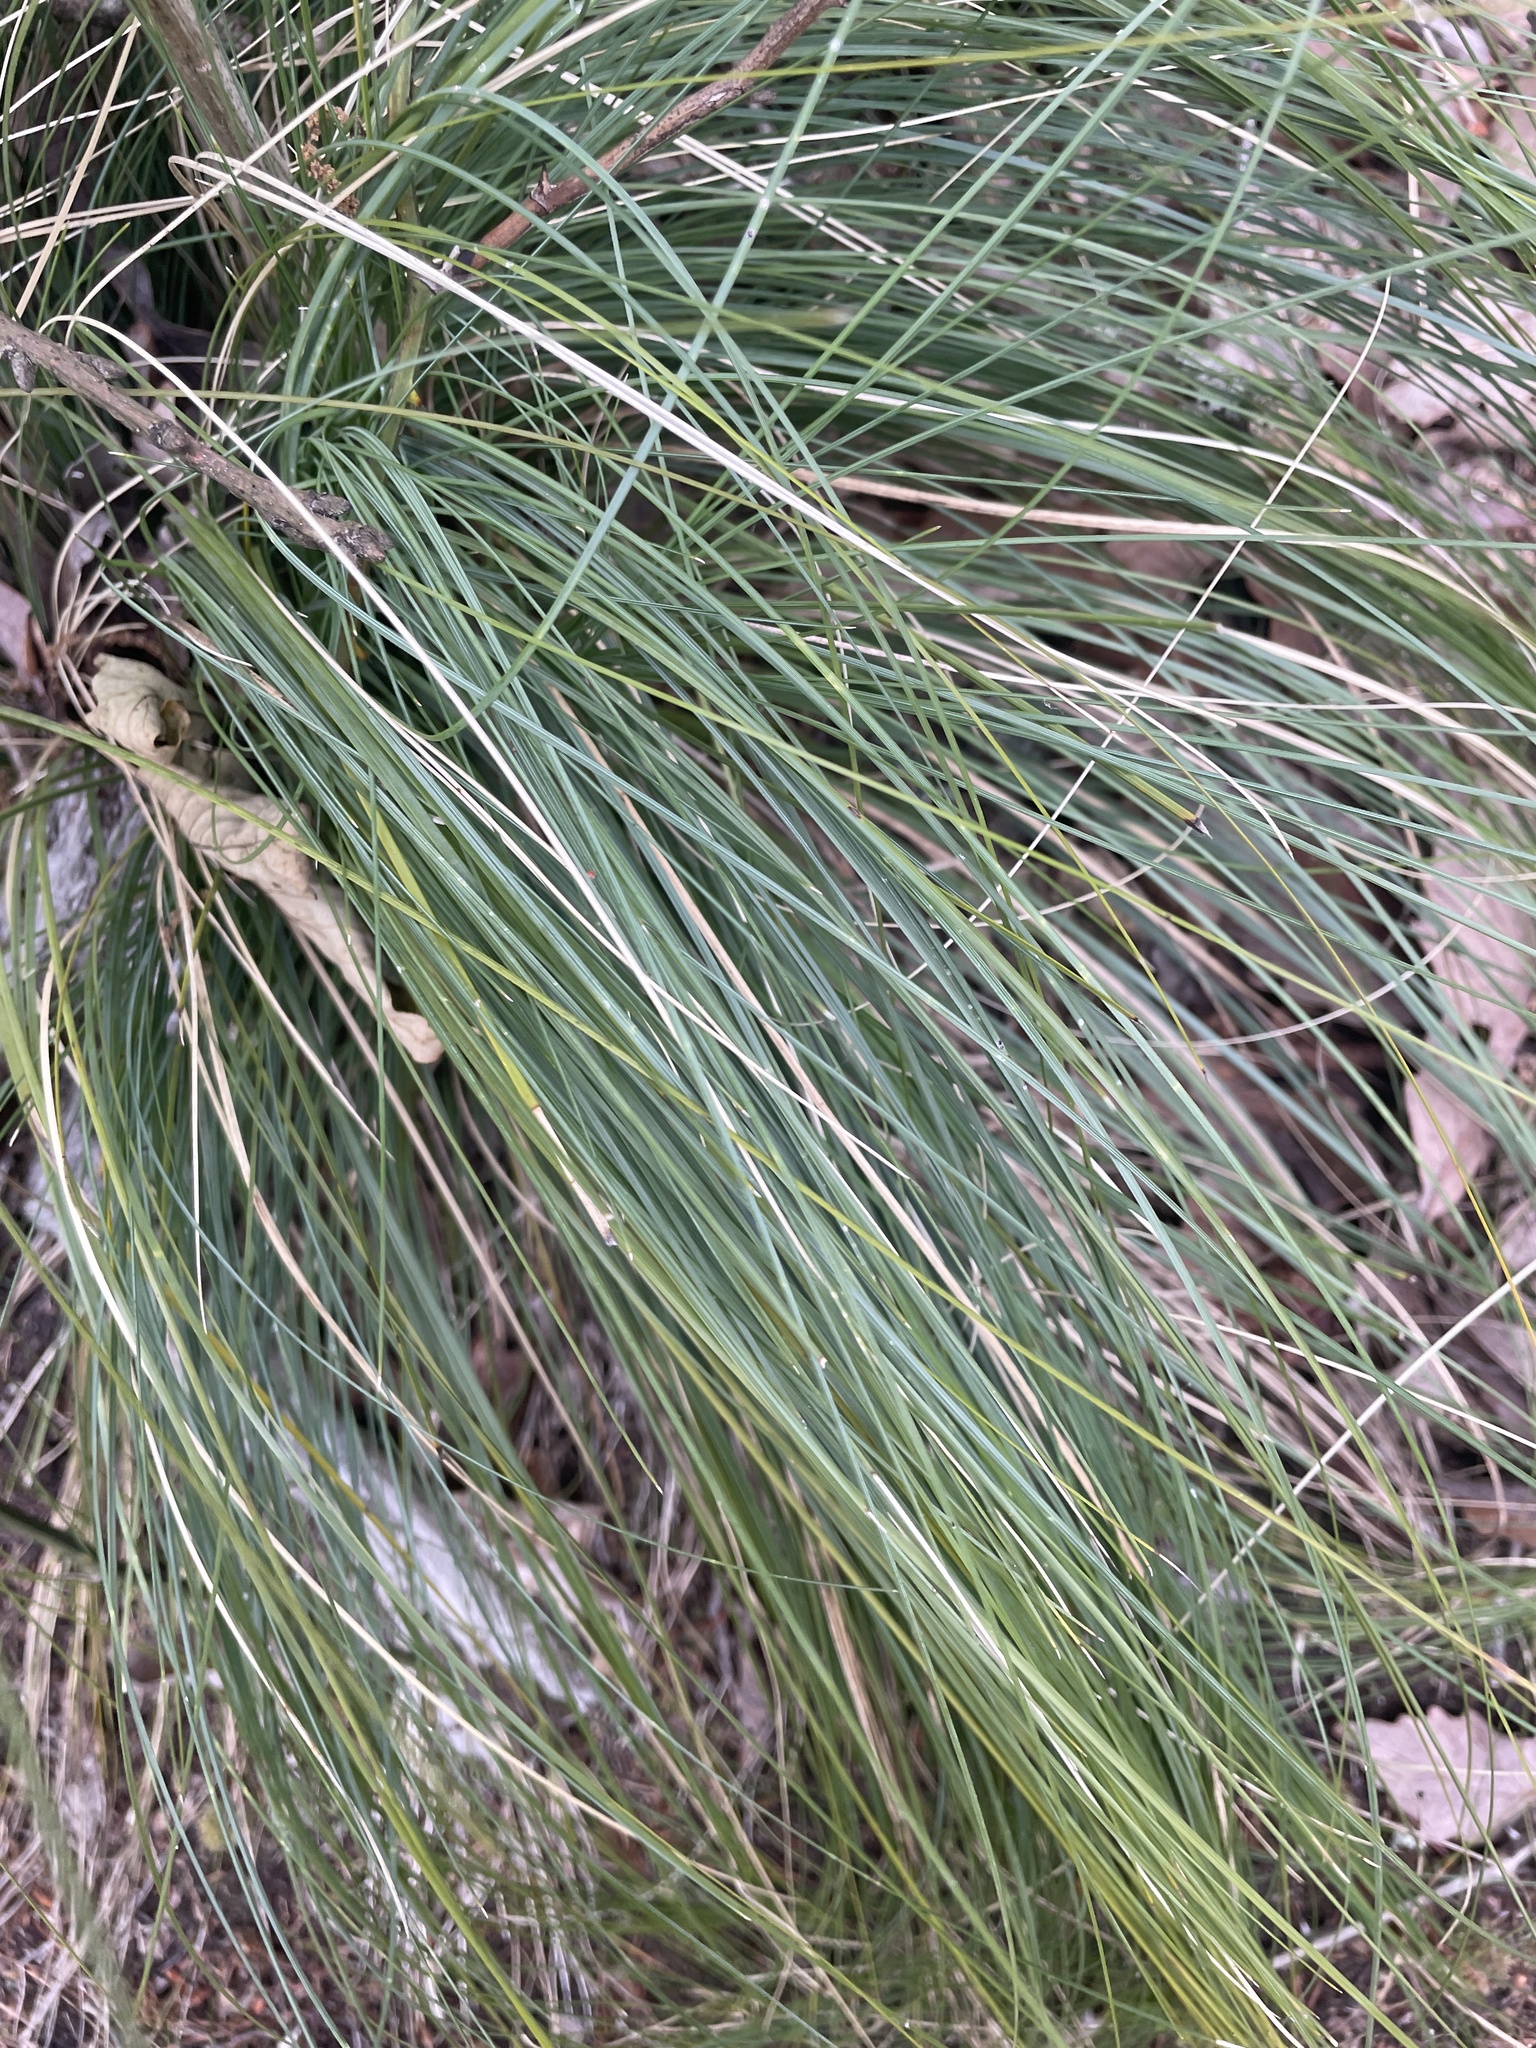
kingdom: Plantae
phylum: Tracheophyta
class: Liliopsida
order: Liliales
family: Melanthiaceae
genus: Xerophyllum
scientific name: Xerophyllum asphodeloides
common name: Mountain-asphodel
